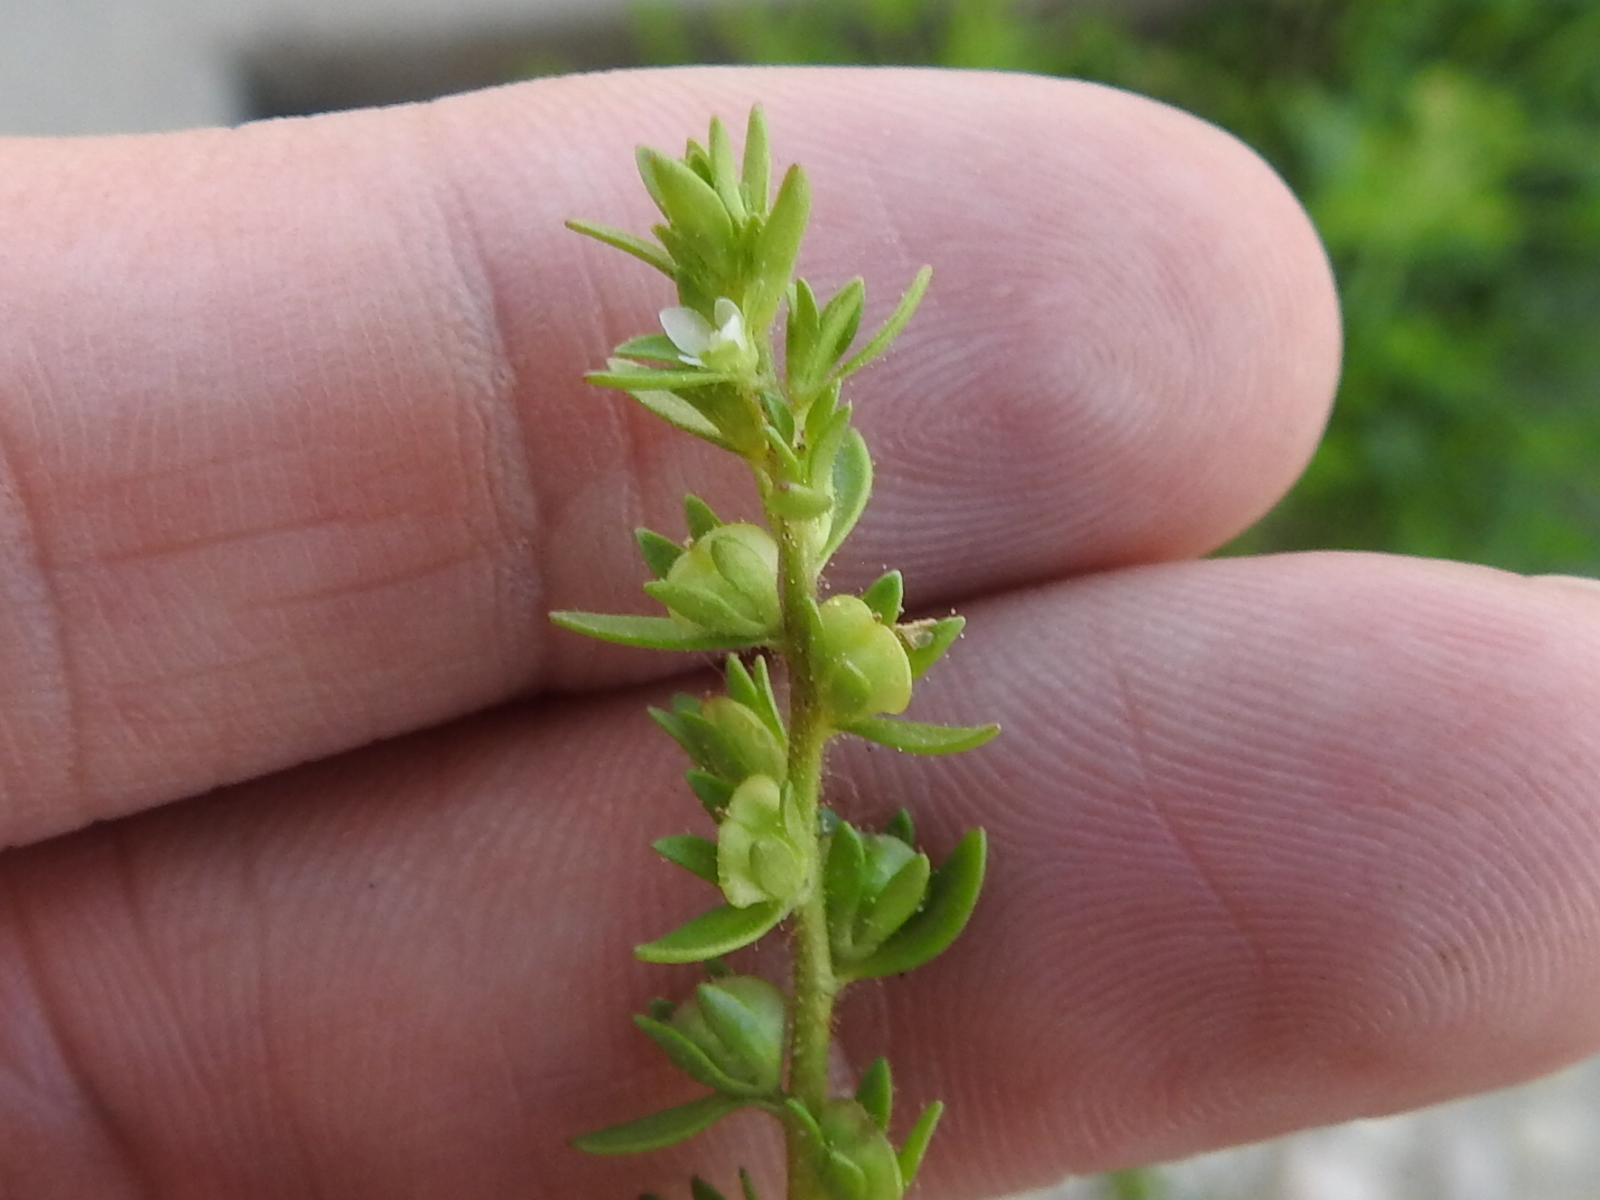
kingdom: Plantae
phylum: Tracheophyta
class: Magnoliopsida
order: Lamiales
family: Plantaginaceae
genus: Veronica
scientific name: Veronica peregrina
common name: Neckweed
